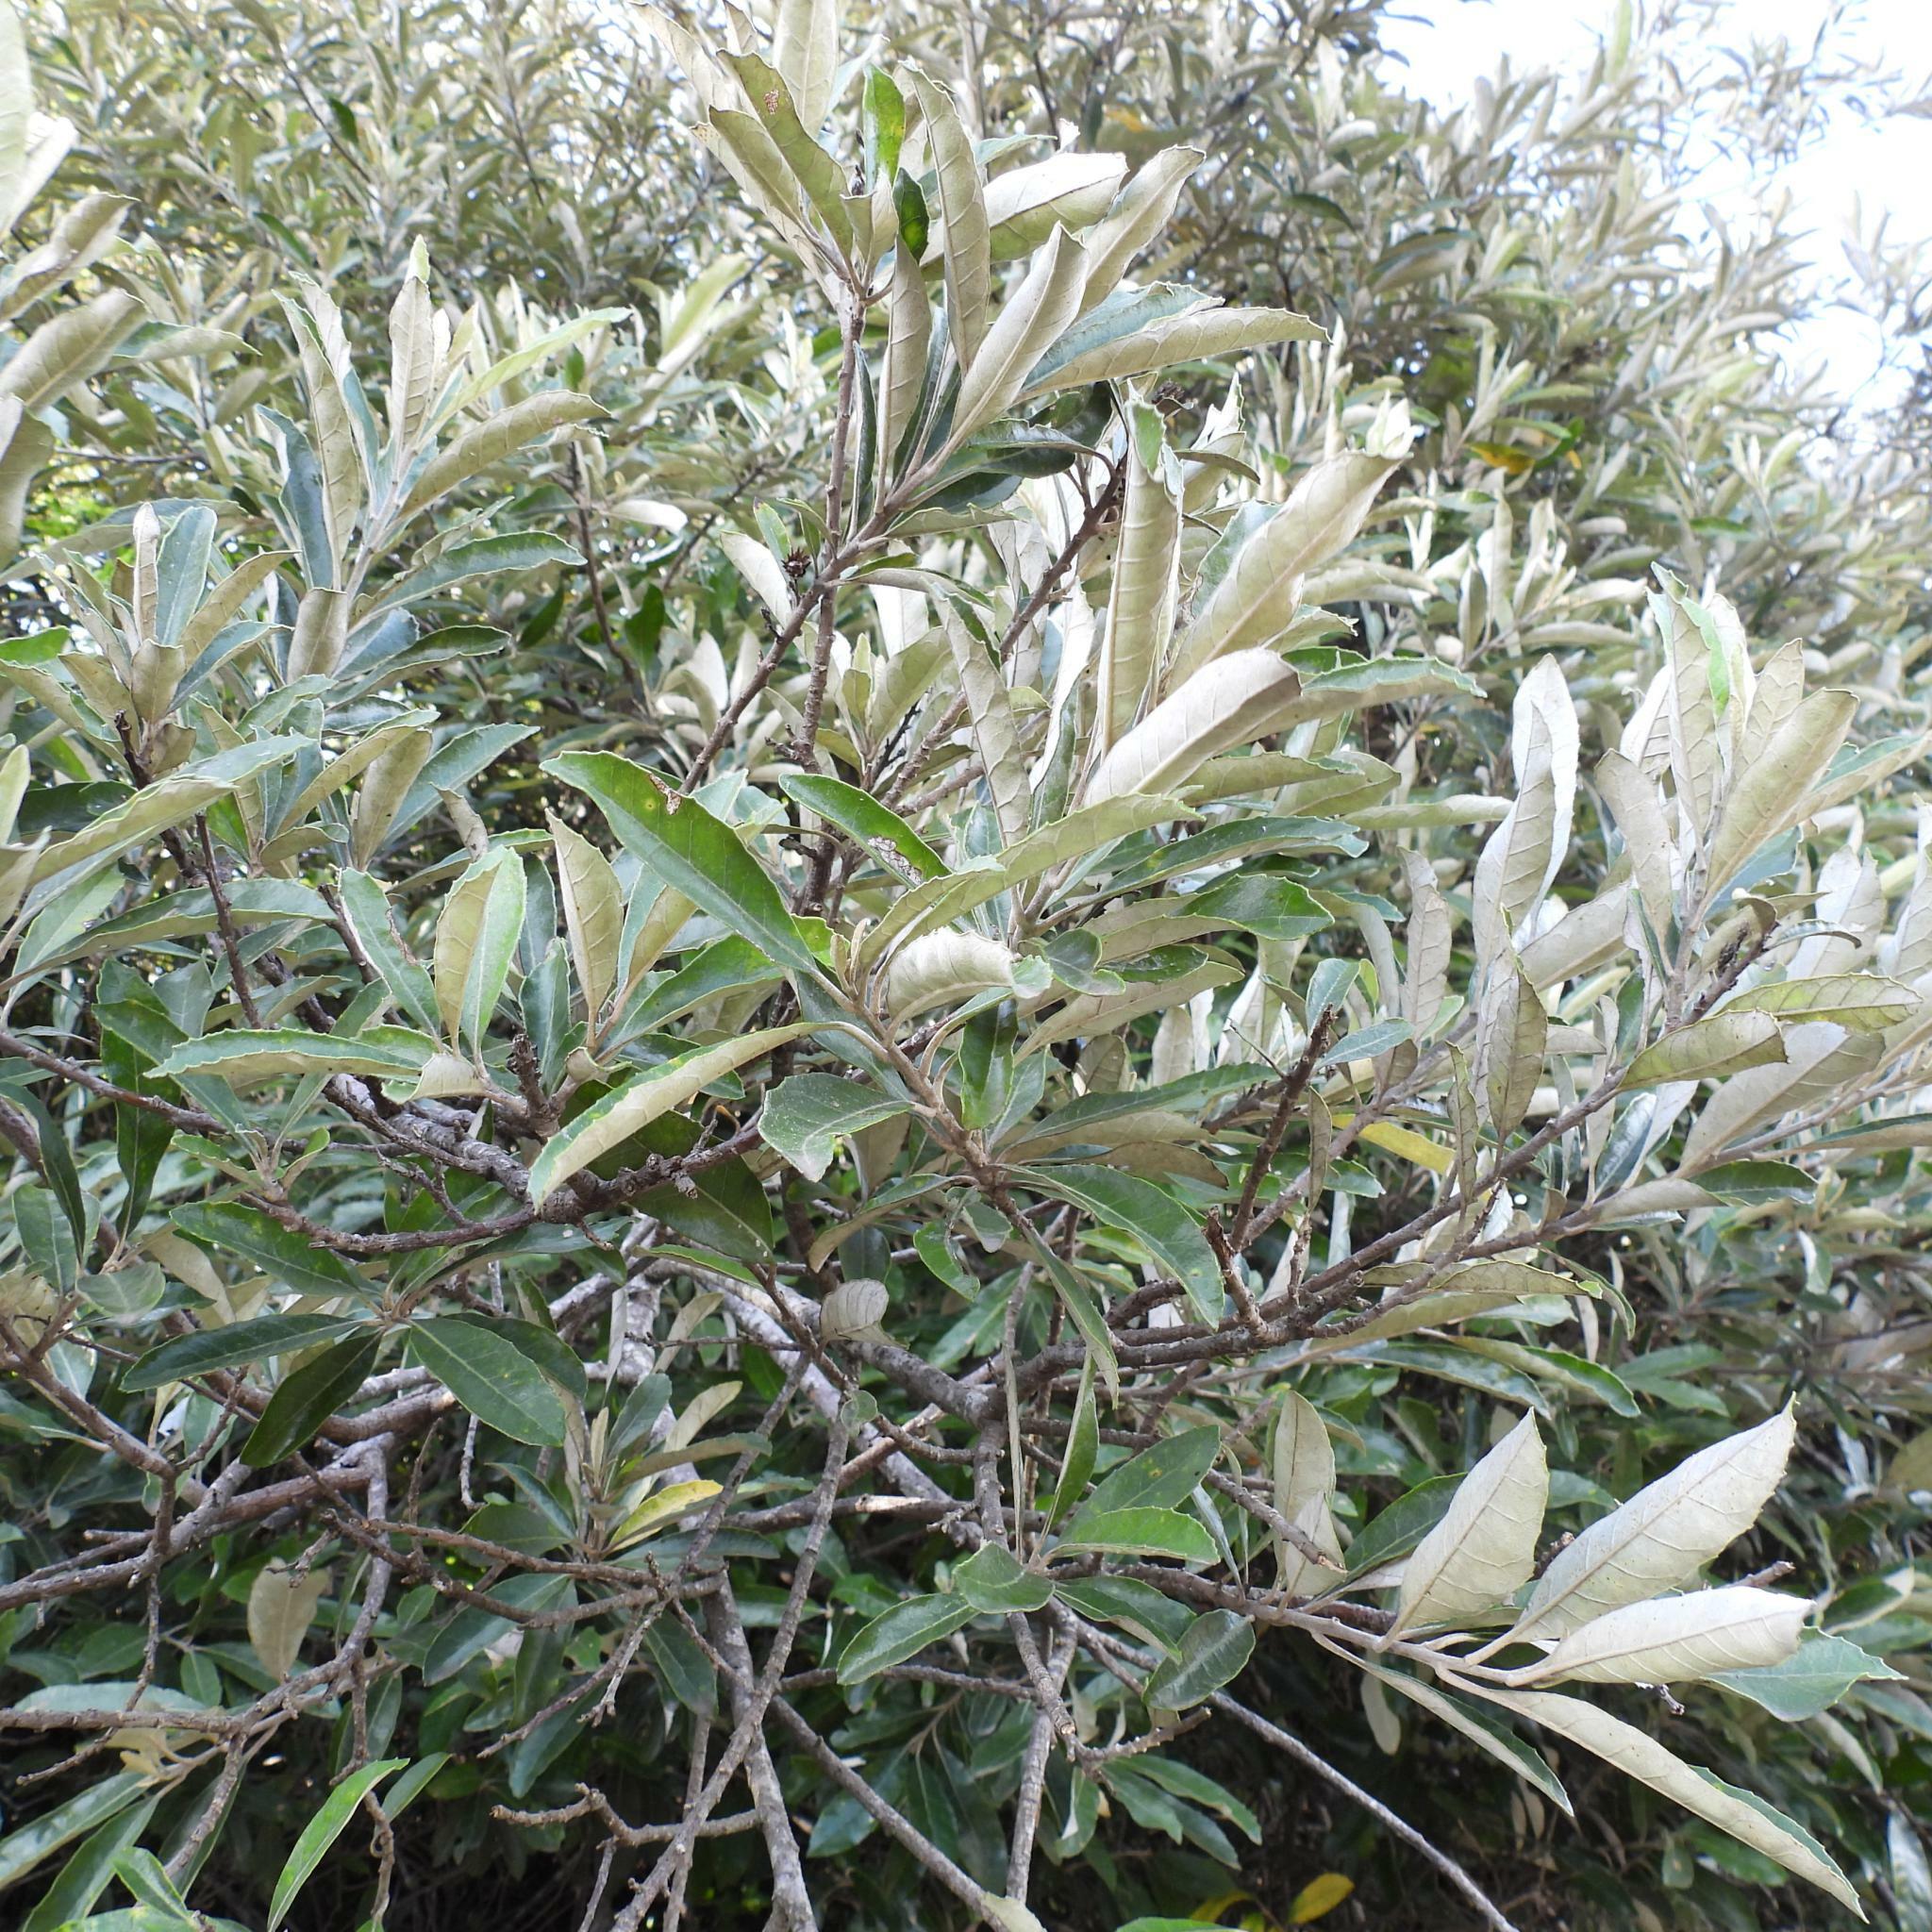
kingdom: Plantae
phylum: Tracheophyta
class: Magnoliopsida
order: Asterales
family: Asteraceae
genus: Brachylaena
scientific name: Brachylaena discolor
